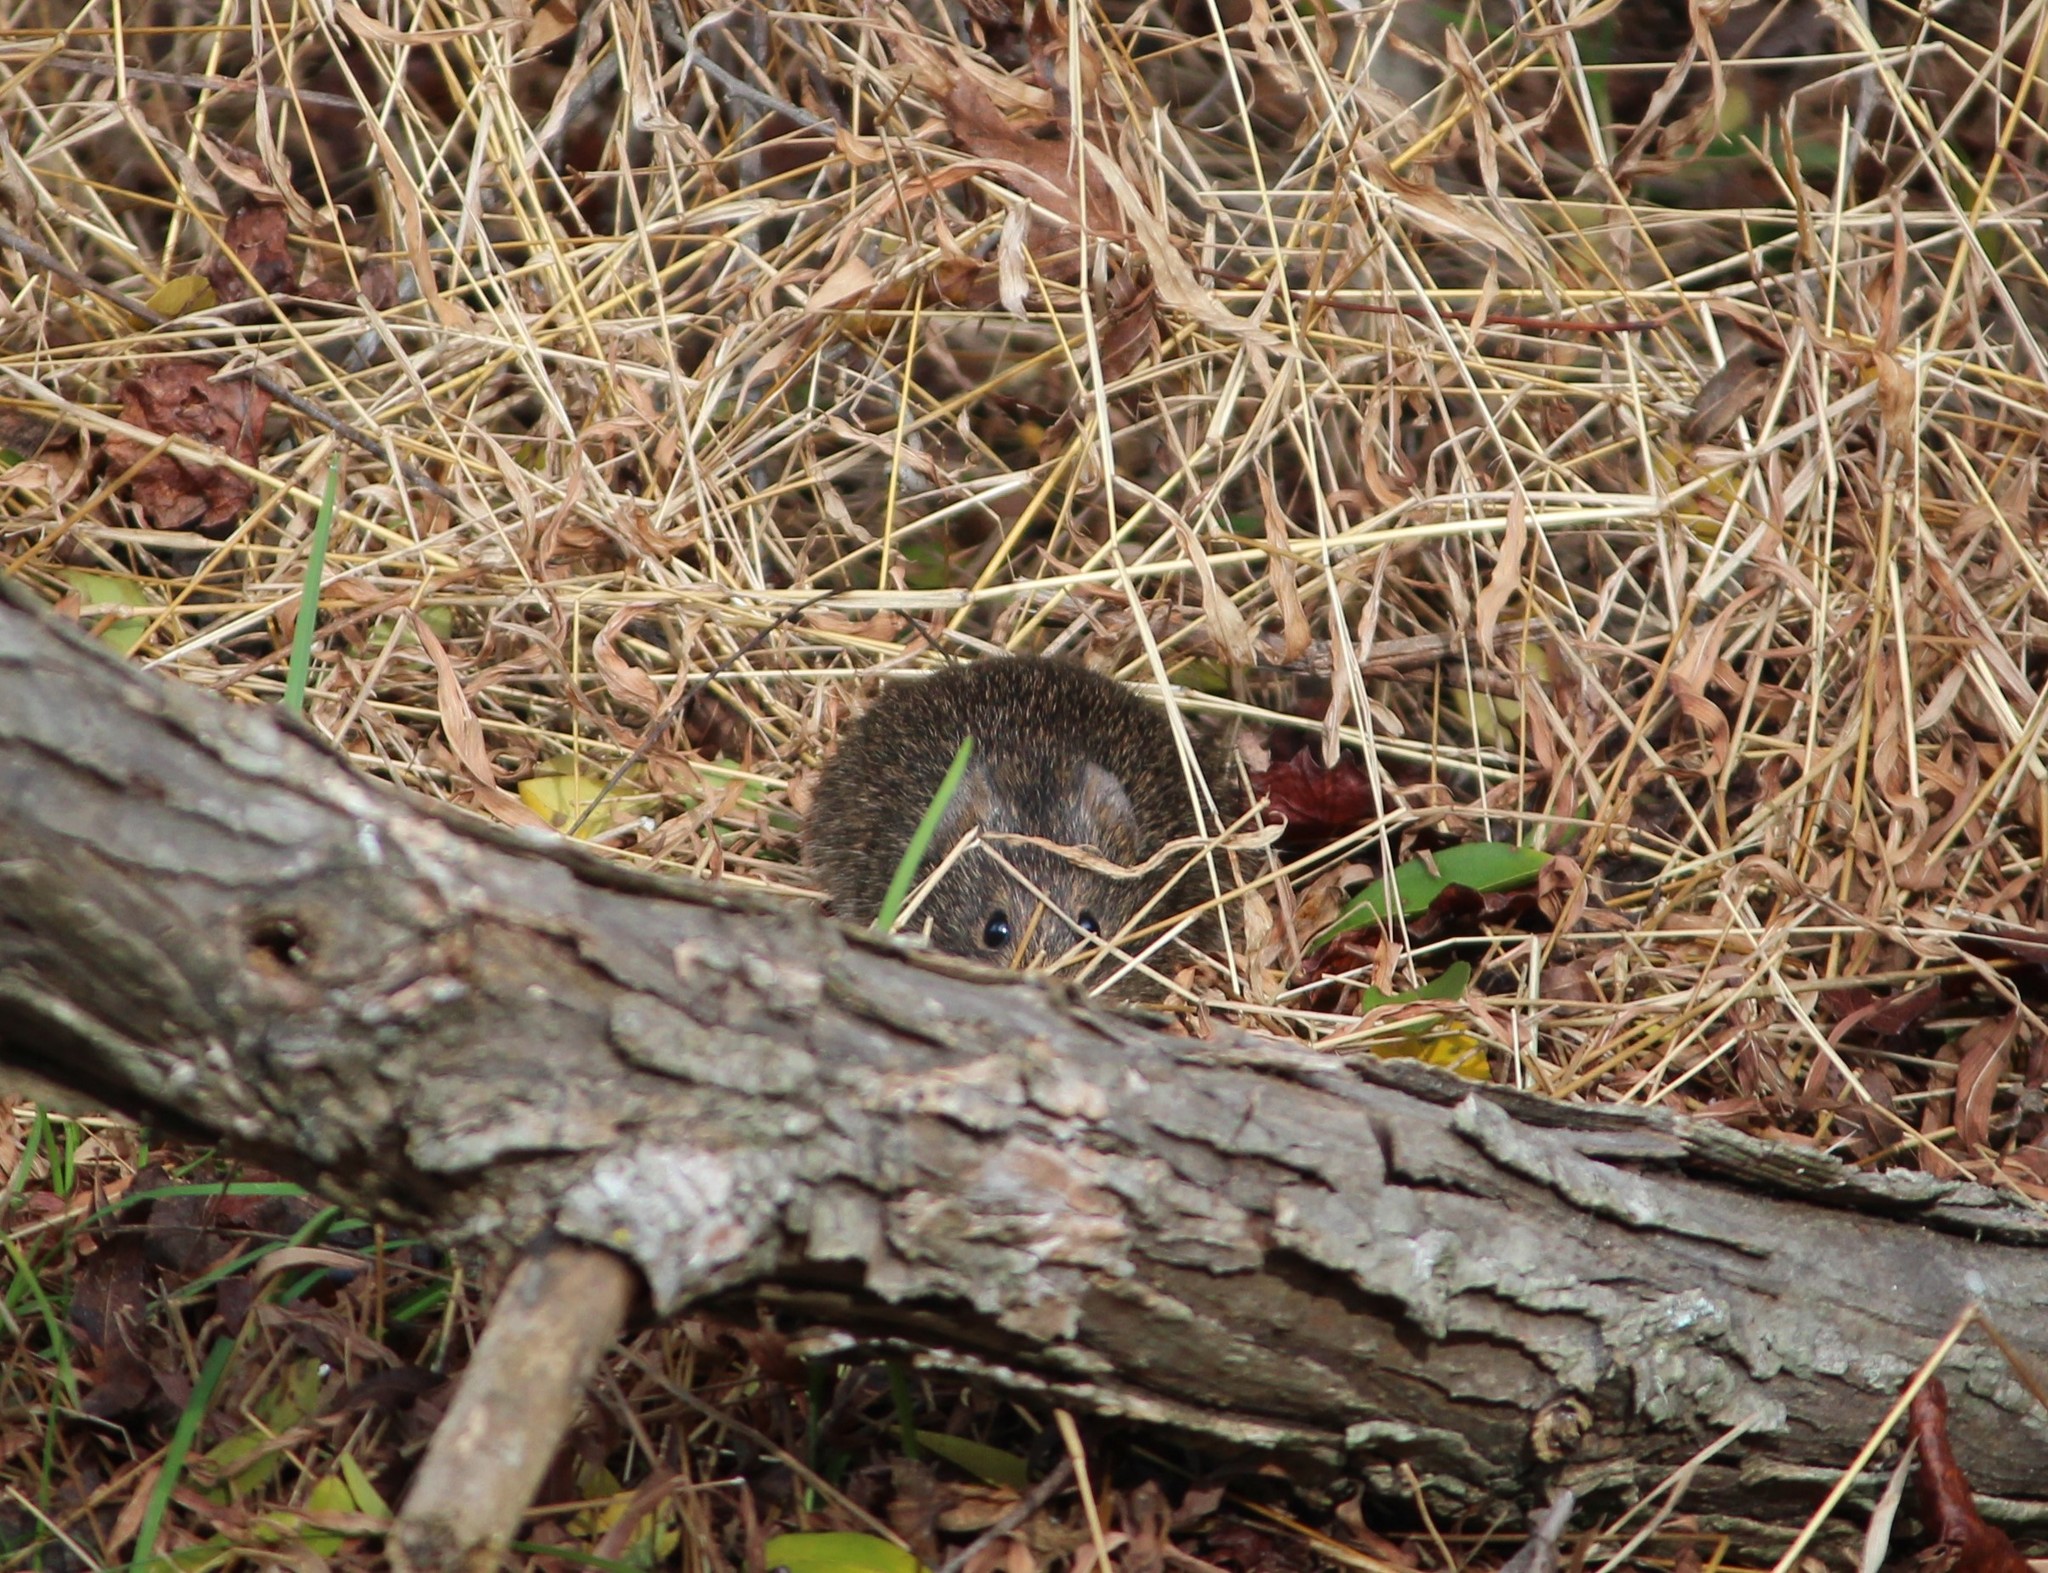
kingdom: Animalia
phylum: Chordata
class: Mammalia
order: Rodentia
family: Cricetidae
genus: Sigmodon
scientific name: Sigmodon hispidus
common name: Hispid cotton rat
